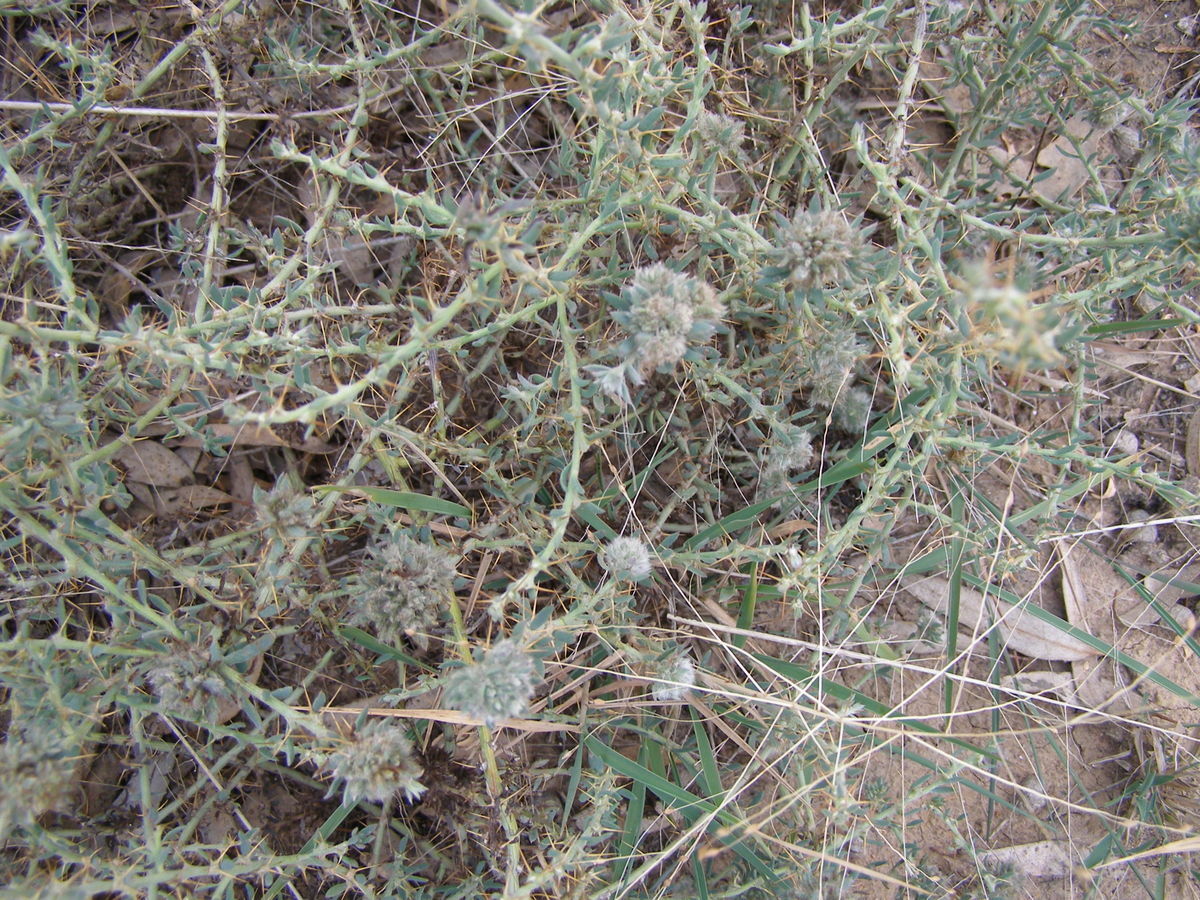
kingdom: Plantae
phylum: Tracheophyta
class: Magnoliopsida
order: Caryophyllales
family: Amaranthaceae
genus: Sclerolaena
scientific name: Sclerolaena muricata
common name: Roly-poly
